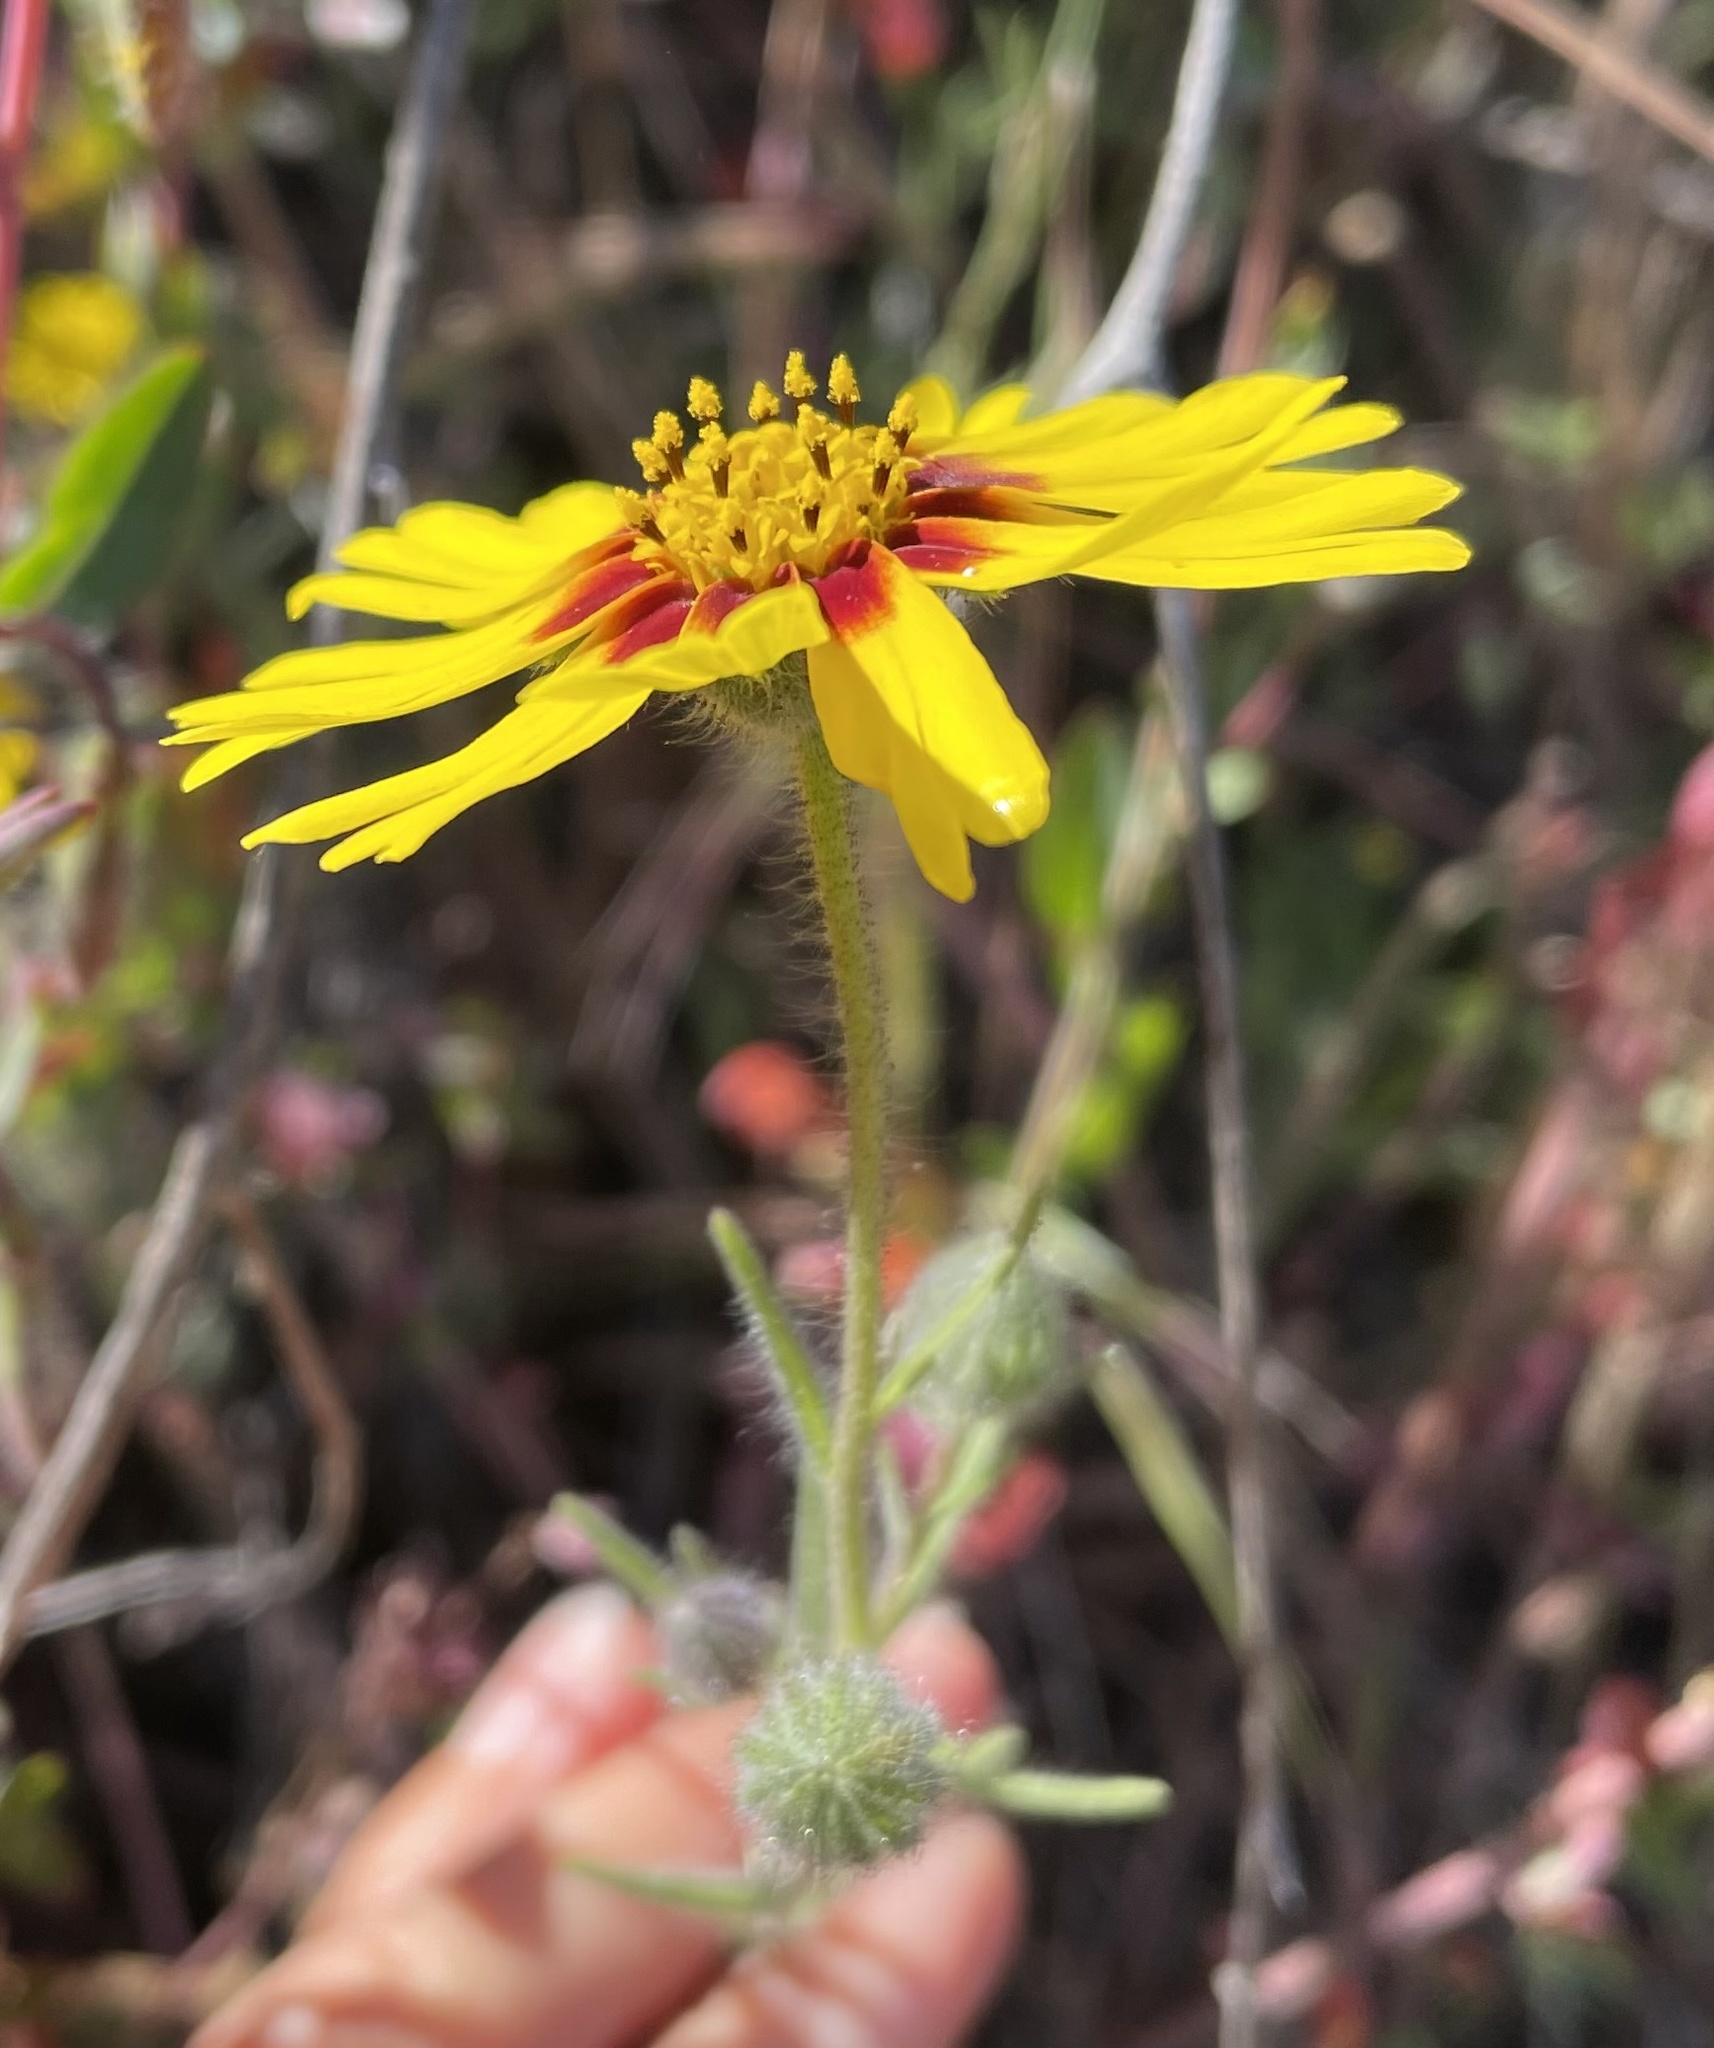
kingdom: Plantae
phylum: Tracheophyta
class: Magnoliopsida
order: Asterales
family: Asteraceae
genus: Madia
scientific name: Madia elegans
